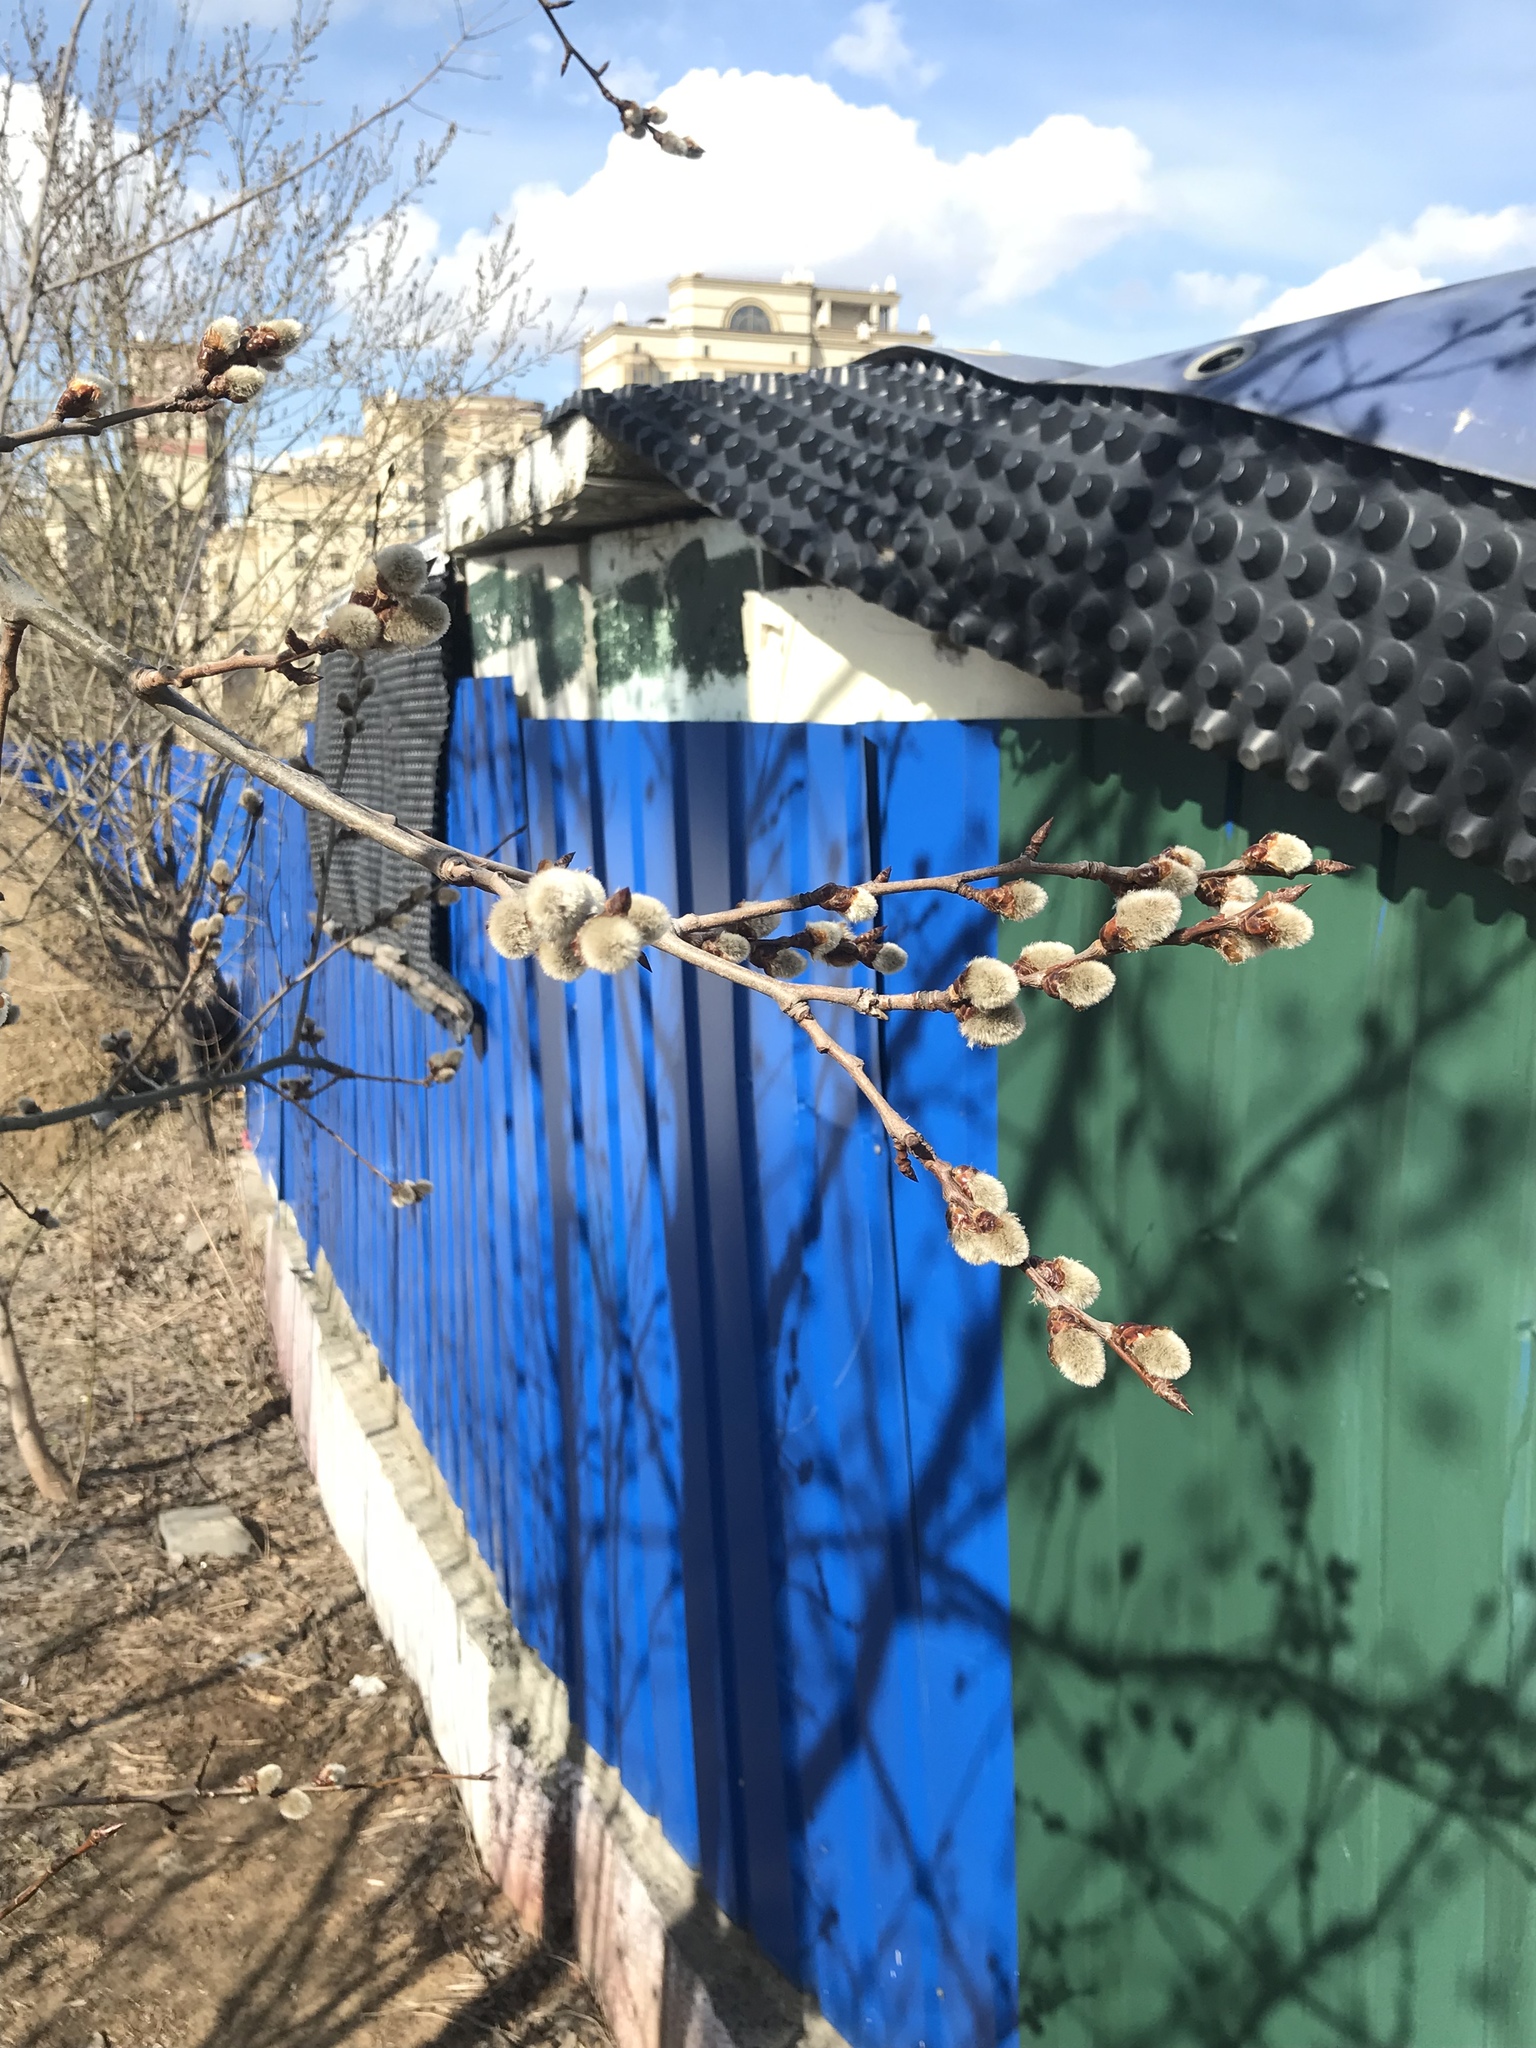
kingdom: Plantae
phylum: Tracheophyta
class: Magnoliopsida
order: Malpighiales
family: Salicaceae
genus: Populus
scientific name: Populus tremula
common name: European aspen
